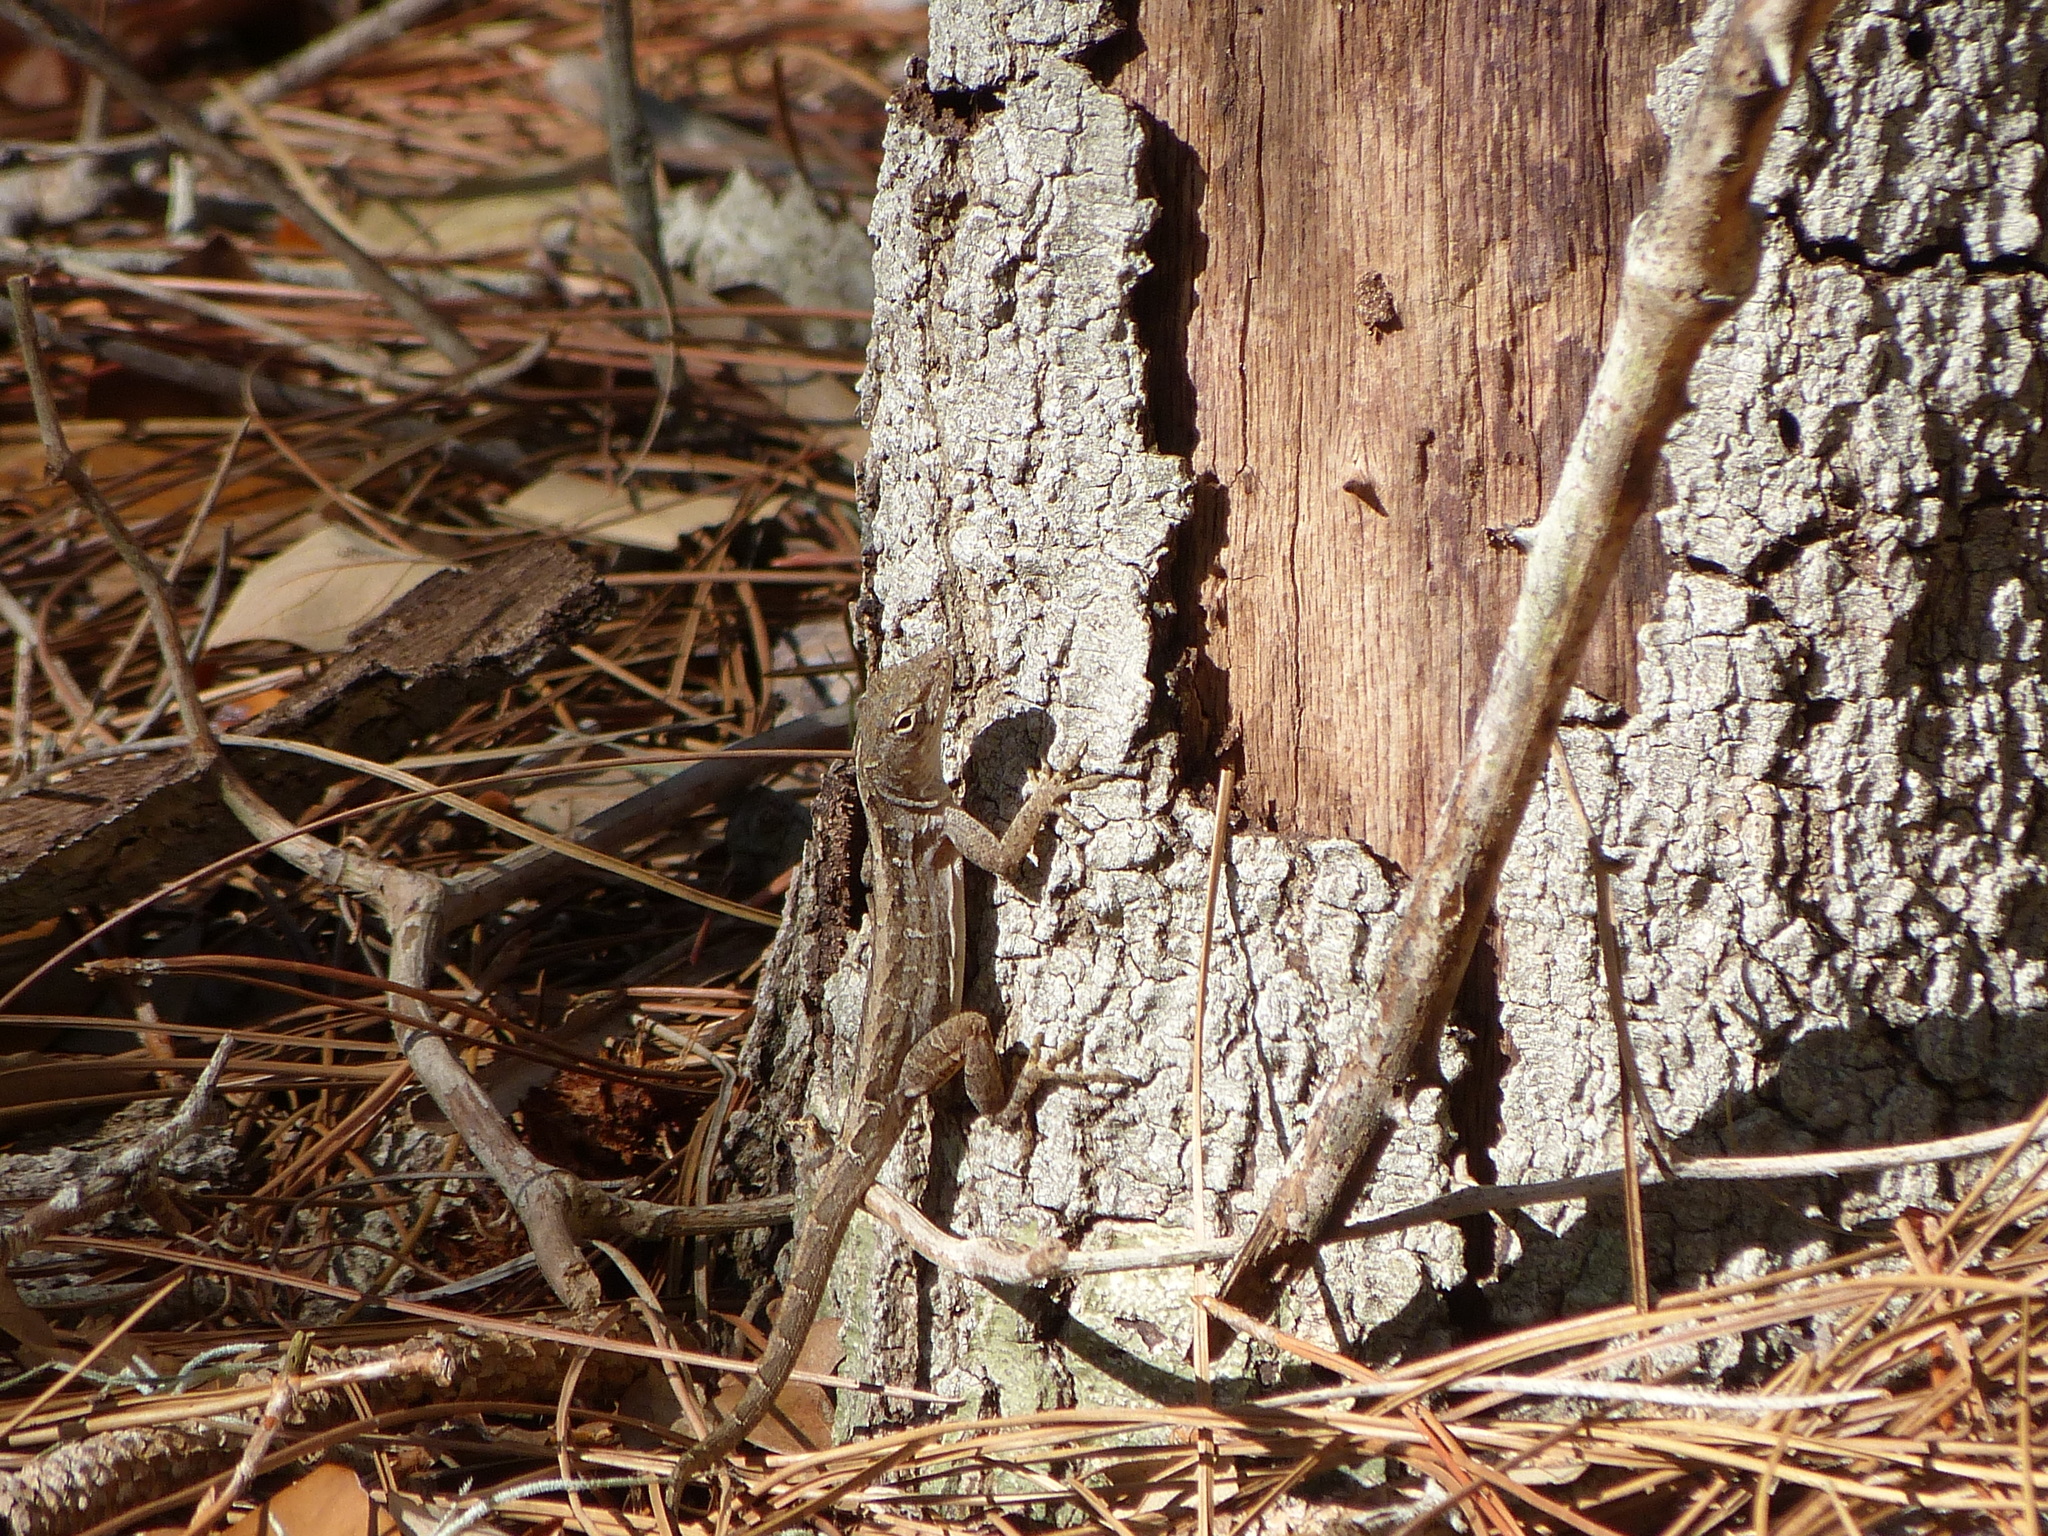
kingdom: Animalia
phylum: Chordata
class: Squamata
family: Dactyloidae
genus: Anolis
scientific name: Anolis sagrei
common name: Brown anole
